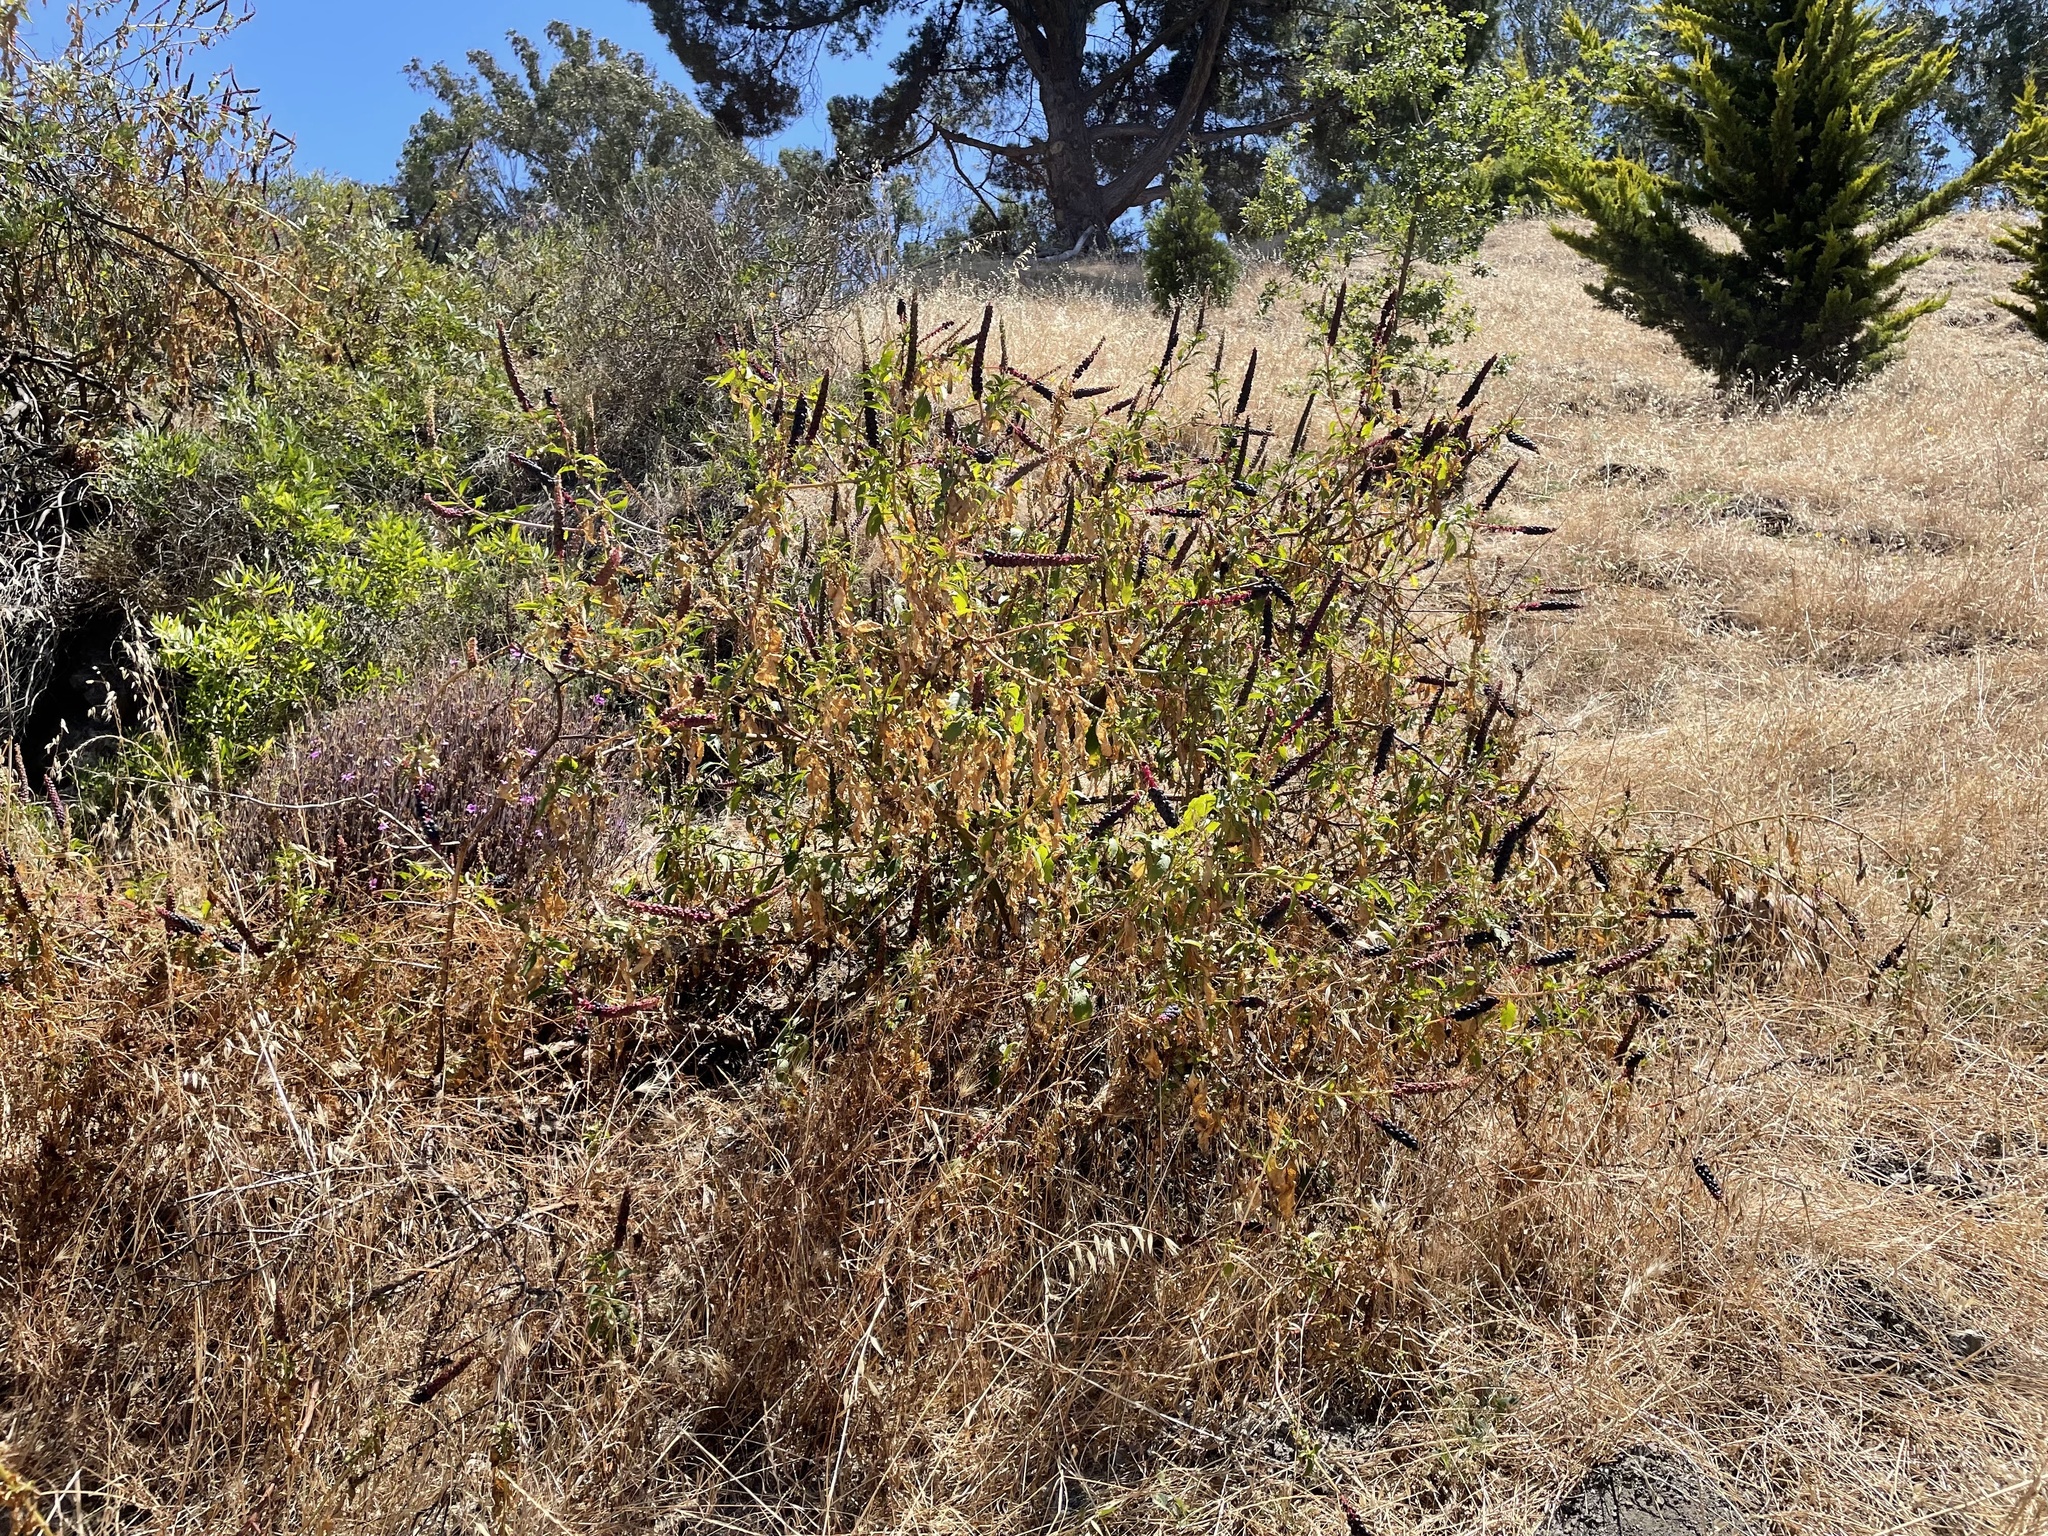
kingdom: Plantae
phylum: Tracheophyta
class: Magnoliopsida
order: Caryophyllales
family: Phytolaccaceae
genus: Phytolacca
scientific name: Phytolacca heterotepala
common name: Mexican pokeweed
